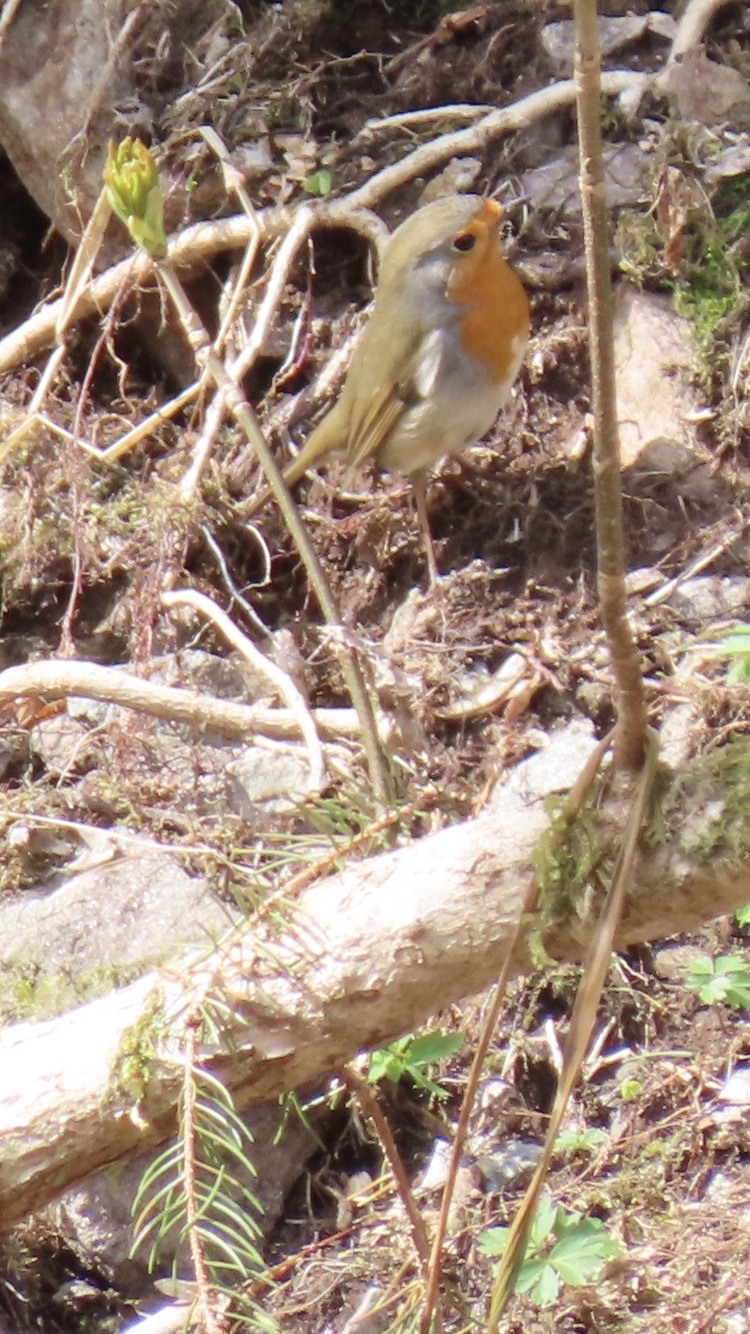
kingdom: Animalia
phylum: Chordata
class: Aves
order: Passeriformes
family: Muscicapidae
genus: Erithacus
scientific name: Erithacus rubecula
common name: European robin
